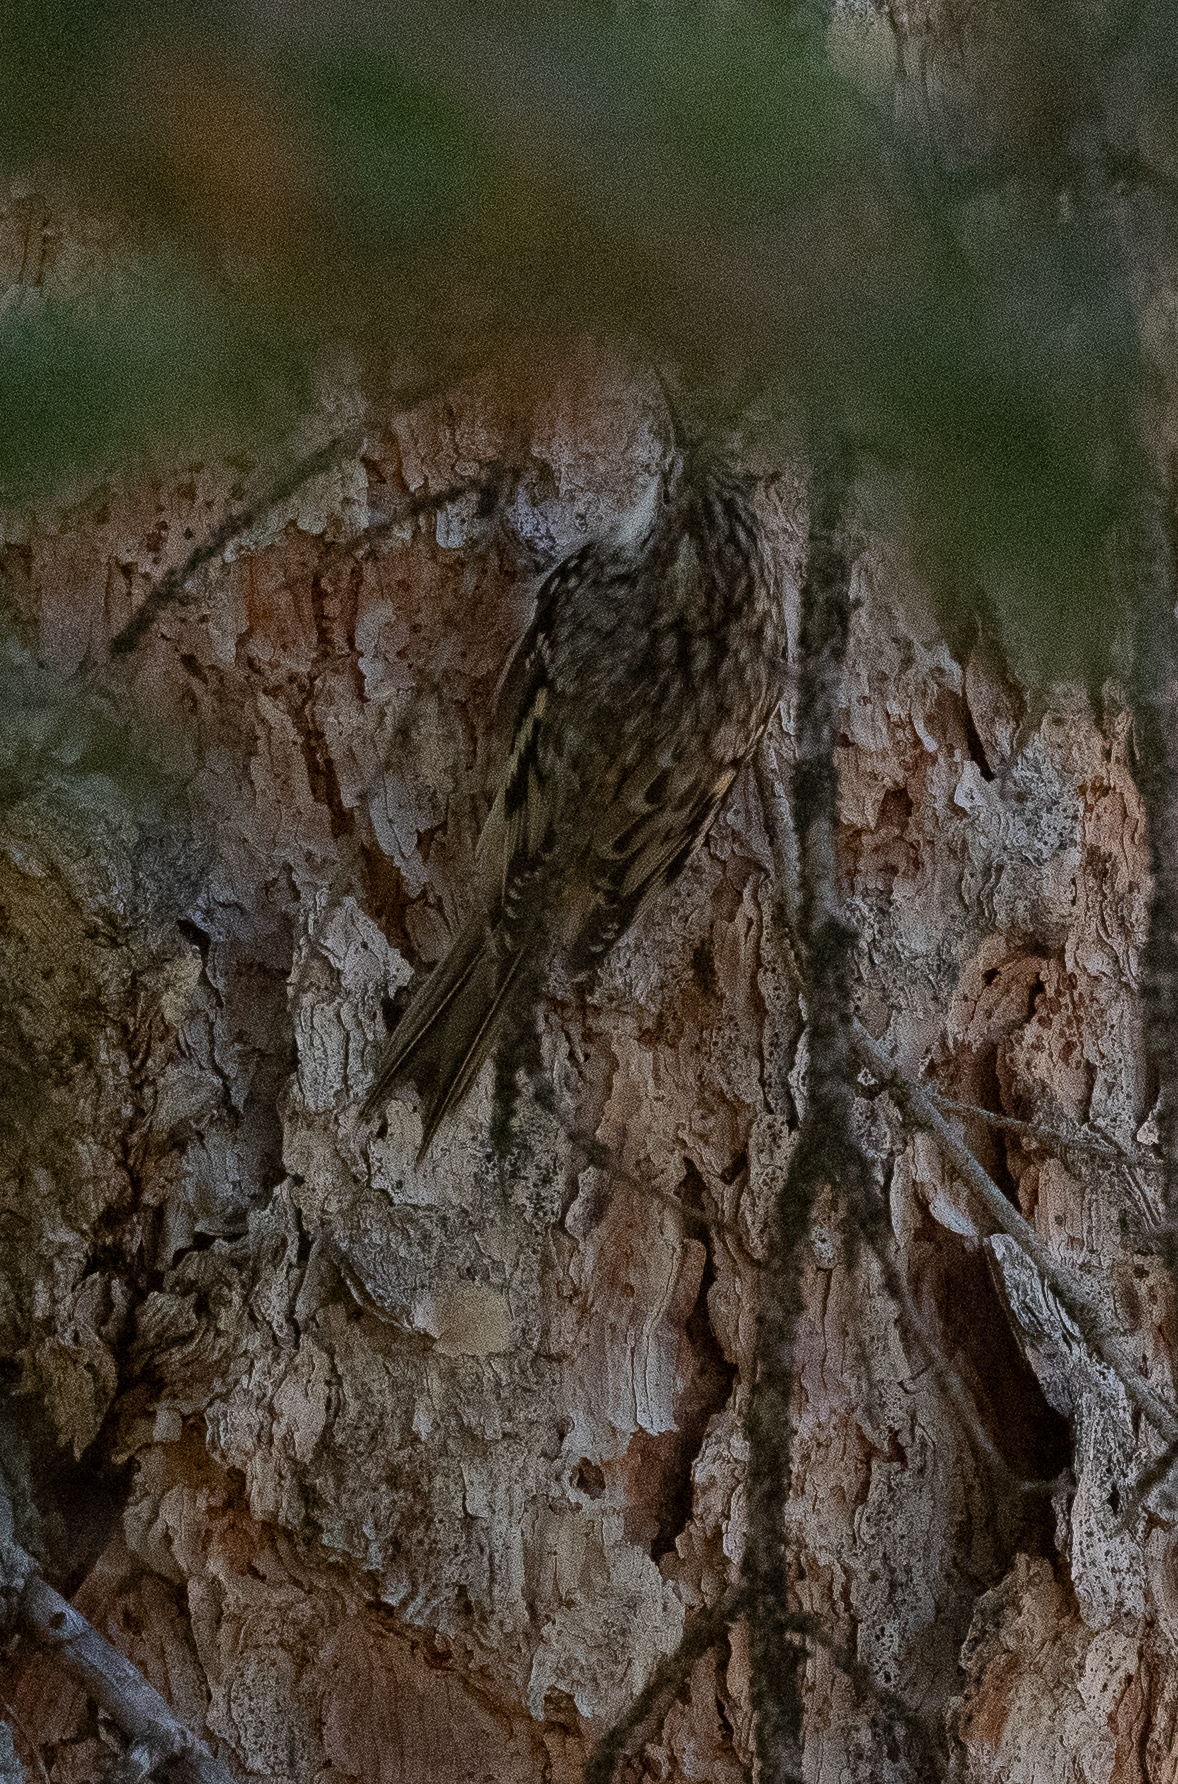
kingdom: Animalia
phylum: Chordata
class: Aves
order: Passeriformes
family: Certhiidae
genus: Certhia
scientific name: Certhia americana
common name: Brown creeper
